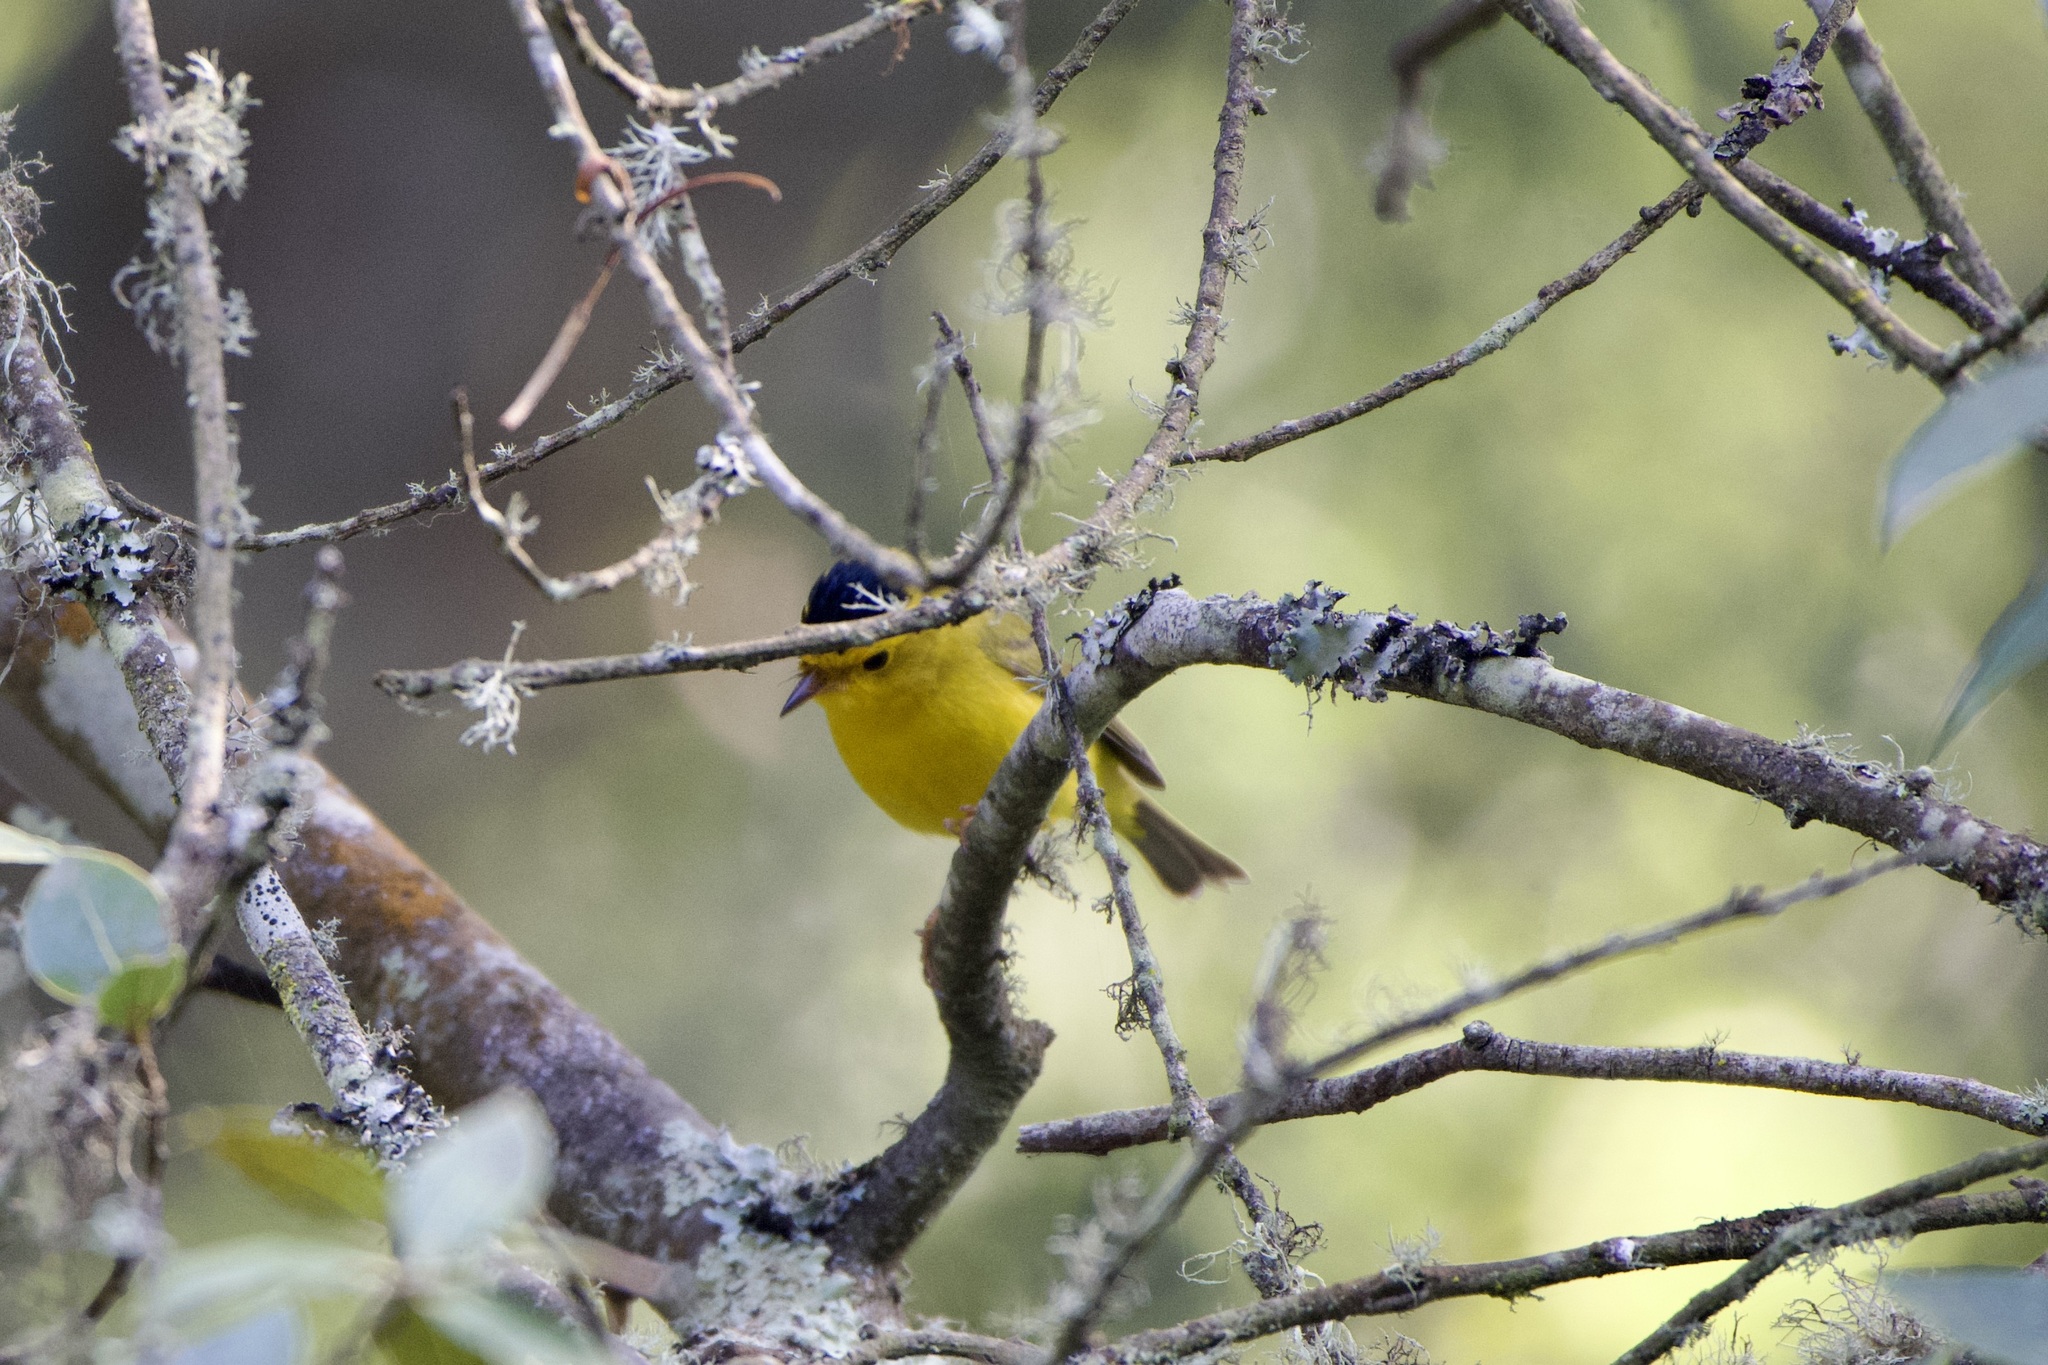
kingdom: Animalia
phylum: Chordata
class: Aves
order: Passeriformes
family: Parulidae
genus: Cardellina
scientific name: Cardellina pusilla
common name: Wilson's warbler
